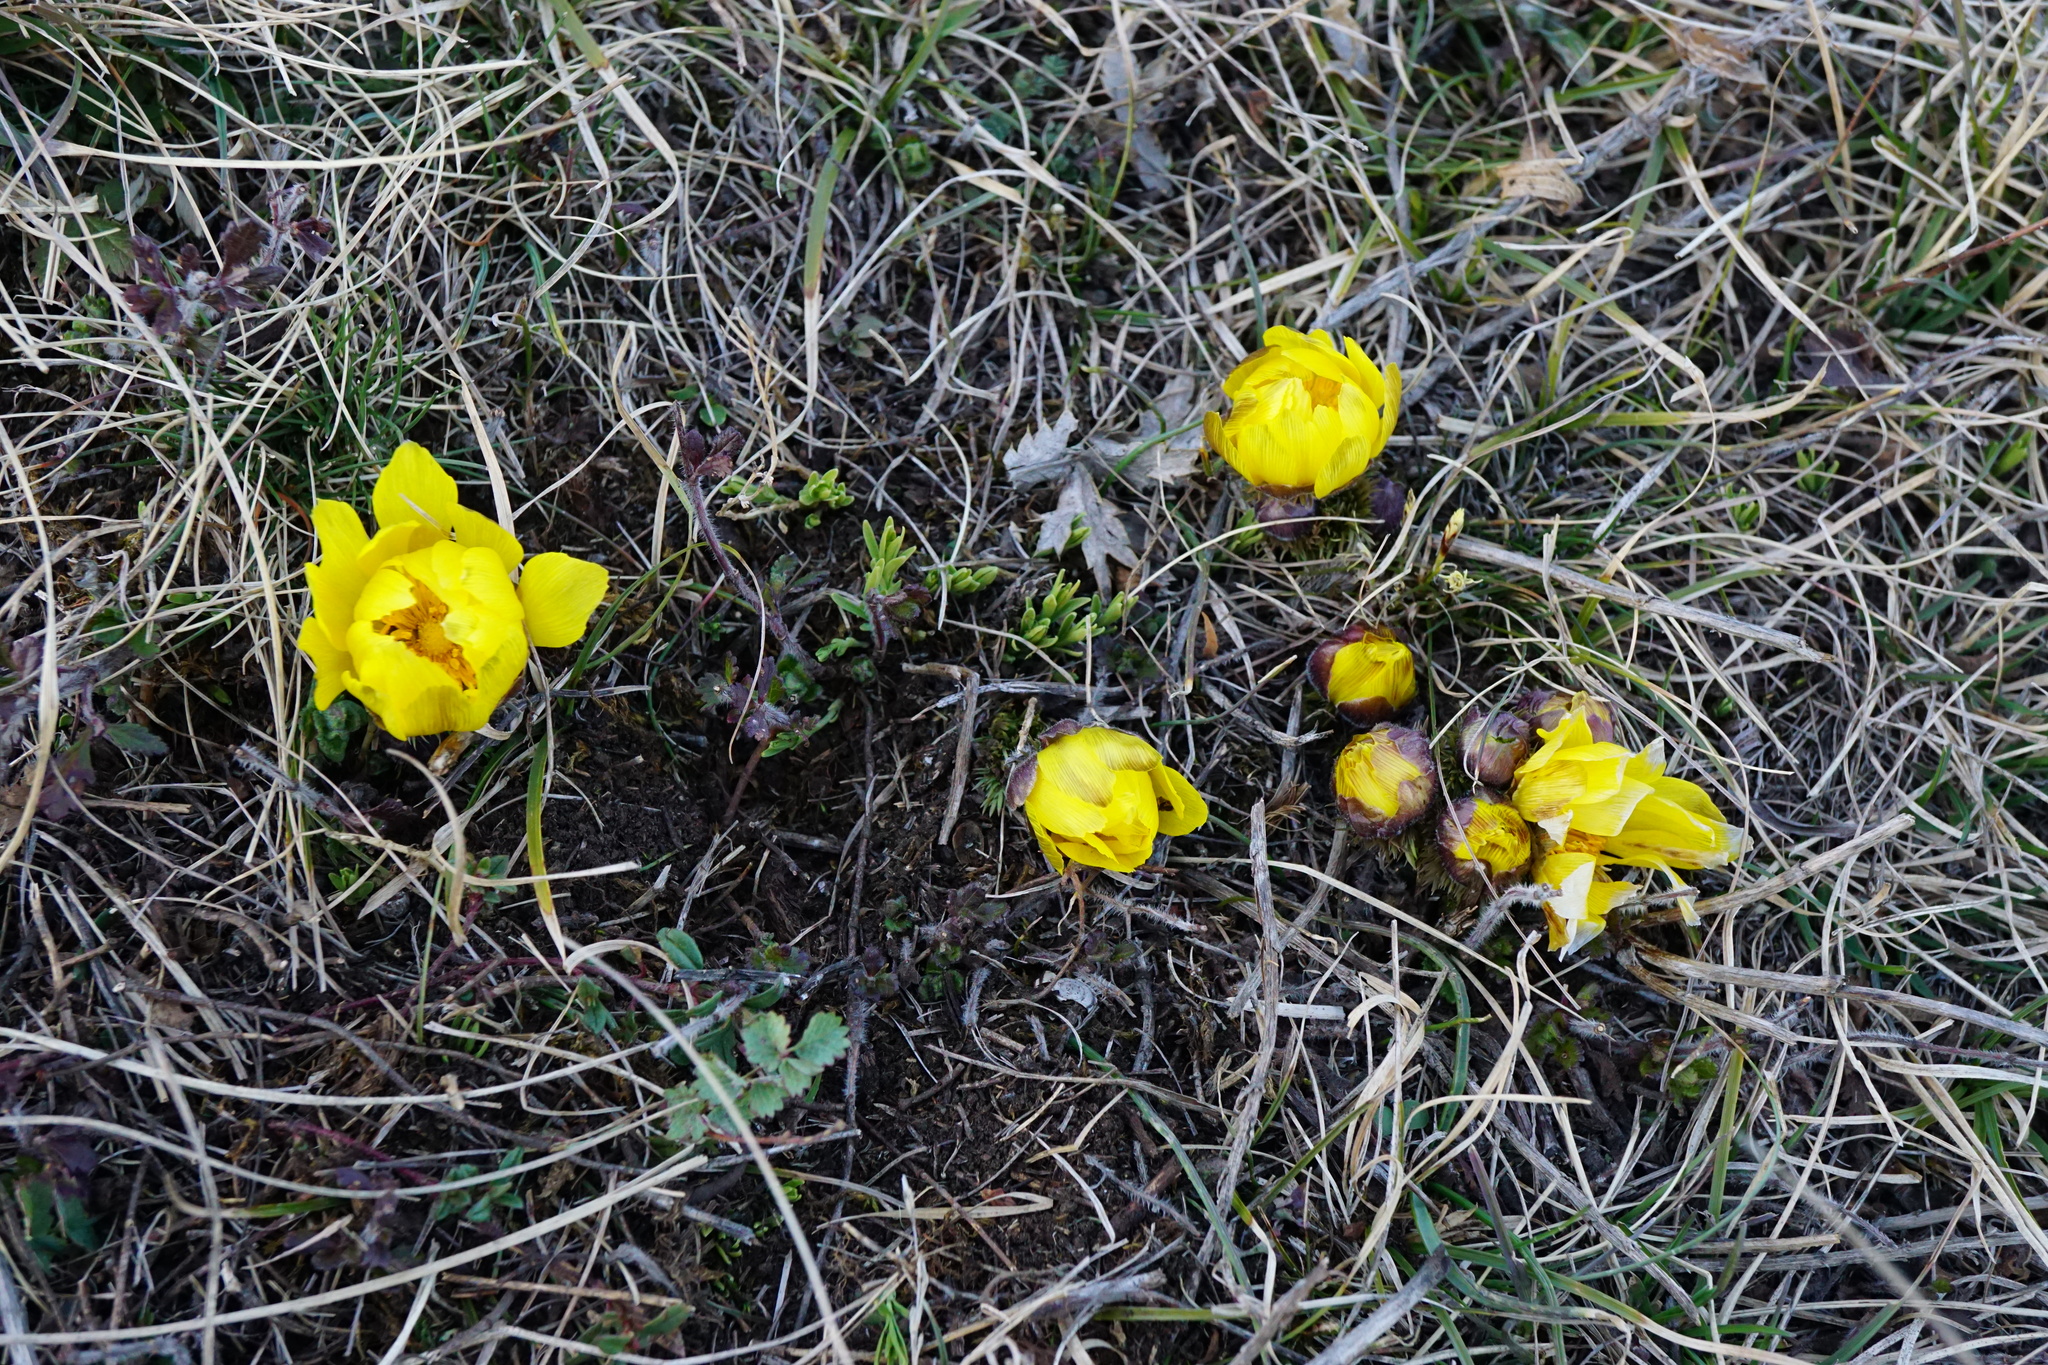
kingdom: Plantae
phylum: Tracheophyta
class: Magnoliopsida
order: Ranunculales
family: Ranunculaceae
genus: Adonis
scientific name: Adonis vernalis
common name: Yellow pheasants-eye
